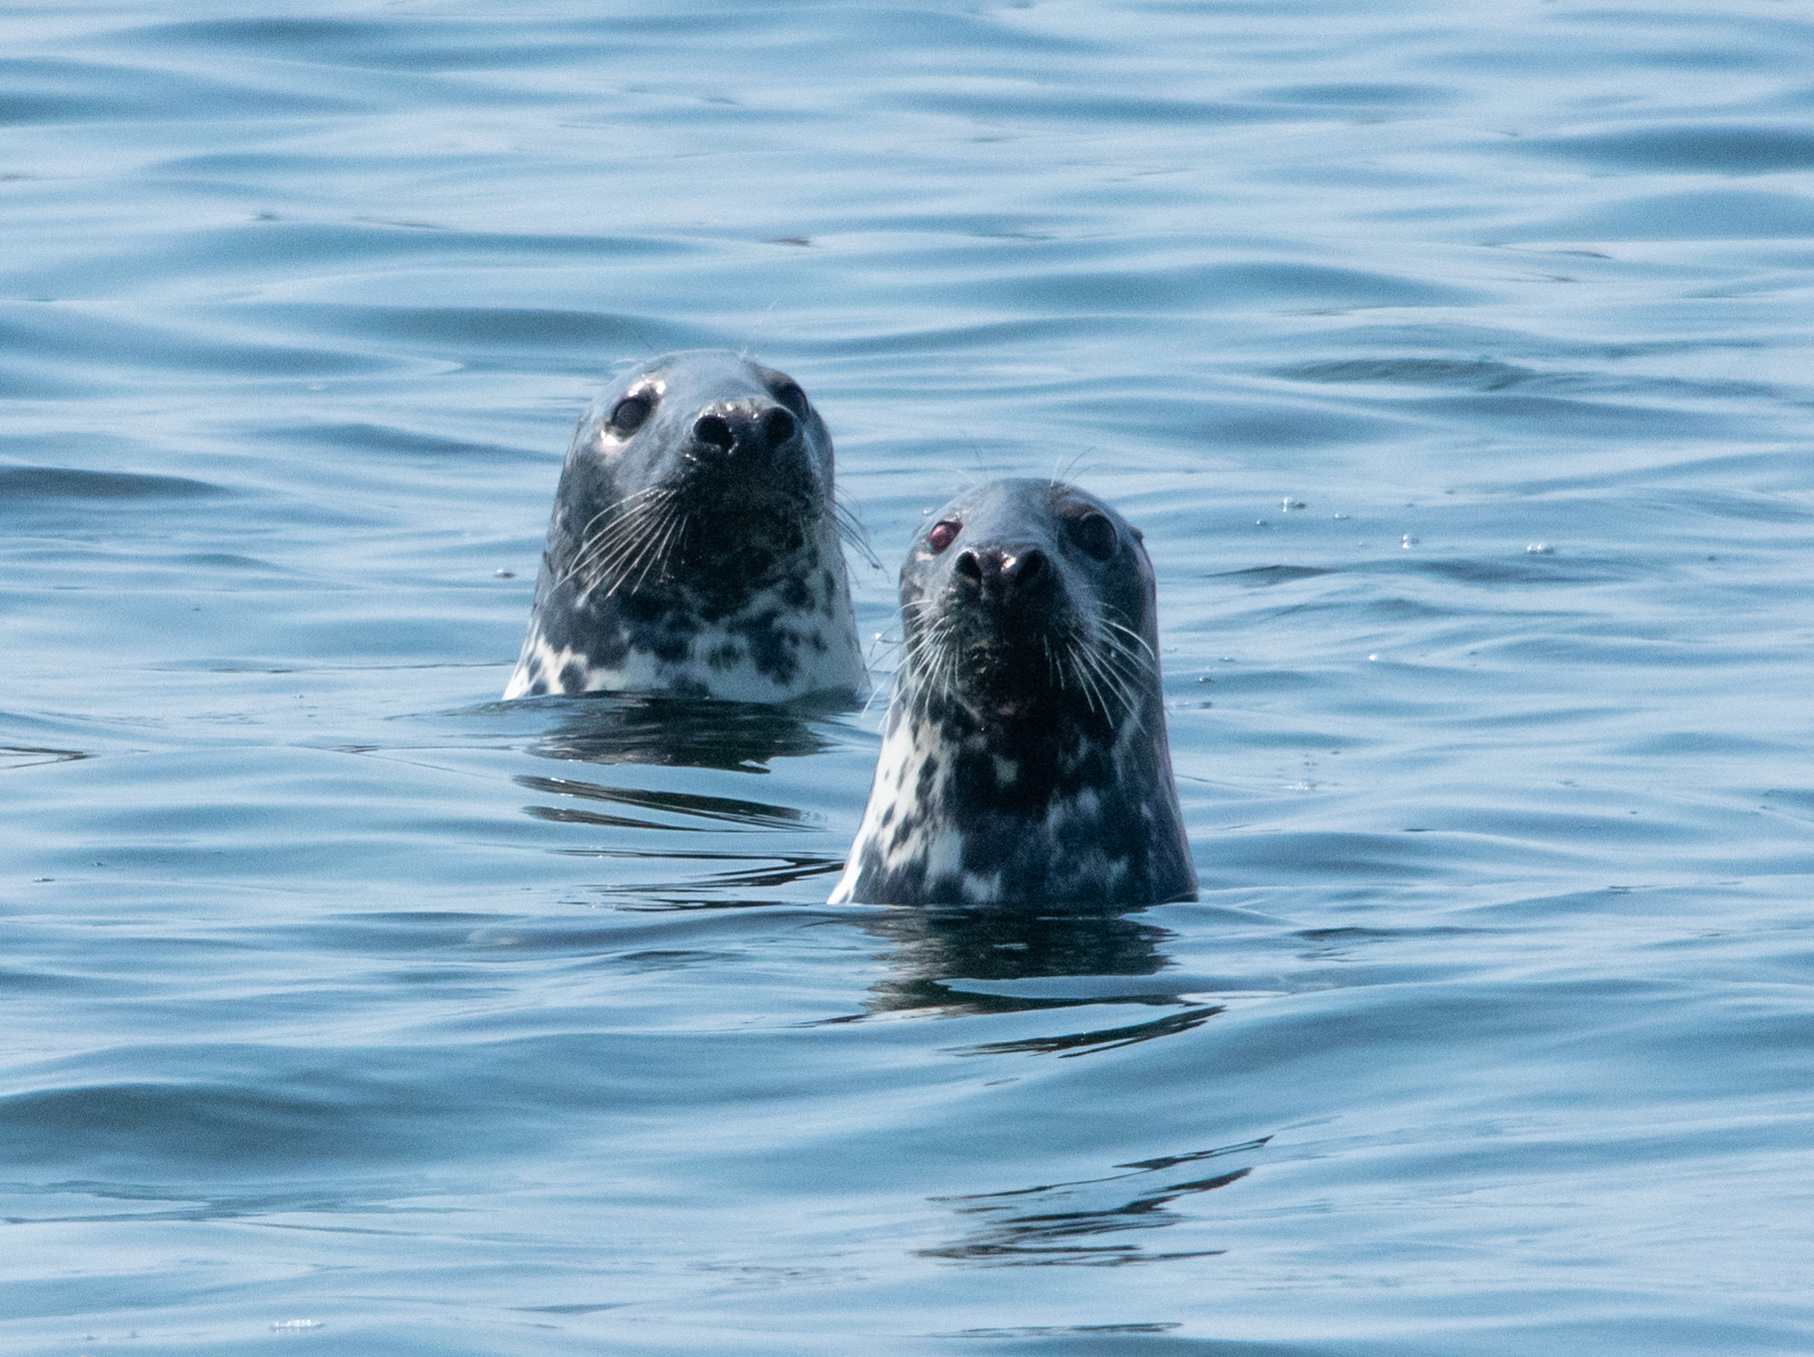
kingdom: Animalia
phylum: Chordata
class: Mammalia
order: Carnivora
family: Phocidae
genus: Halichoerus
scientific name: Halichoerus grypus
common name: Grey seal
